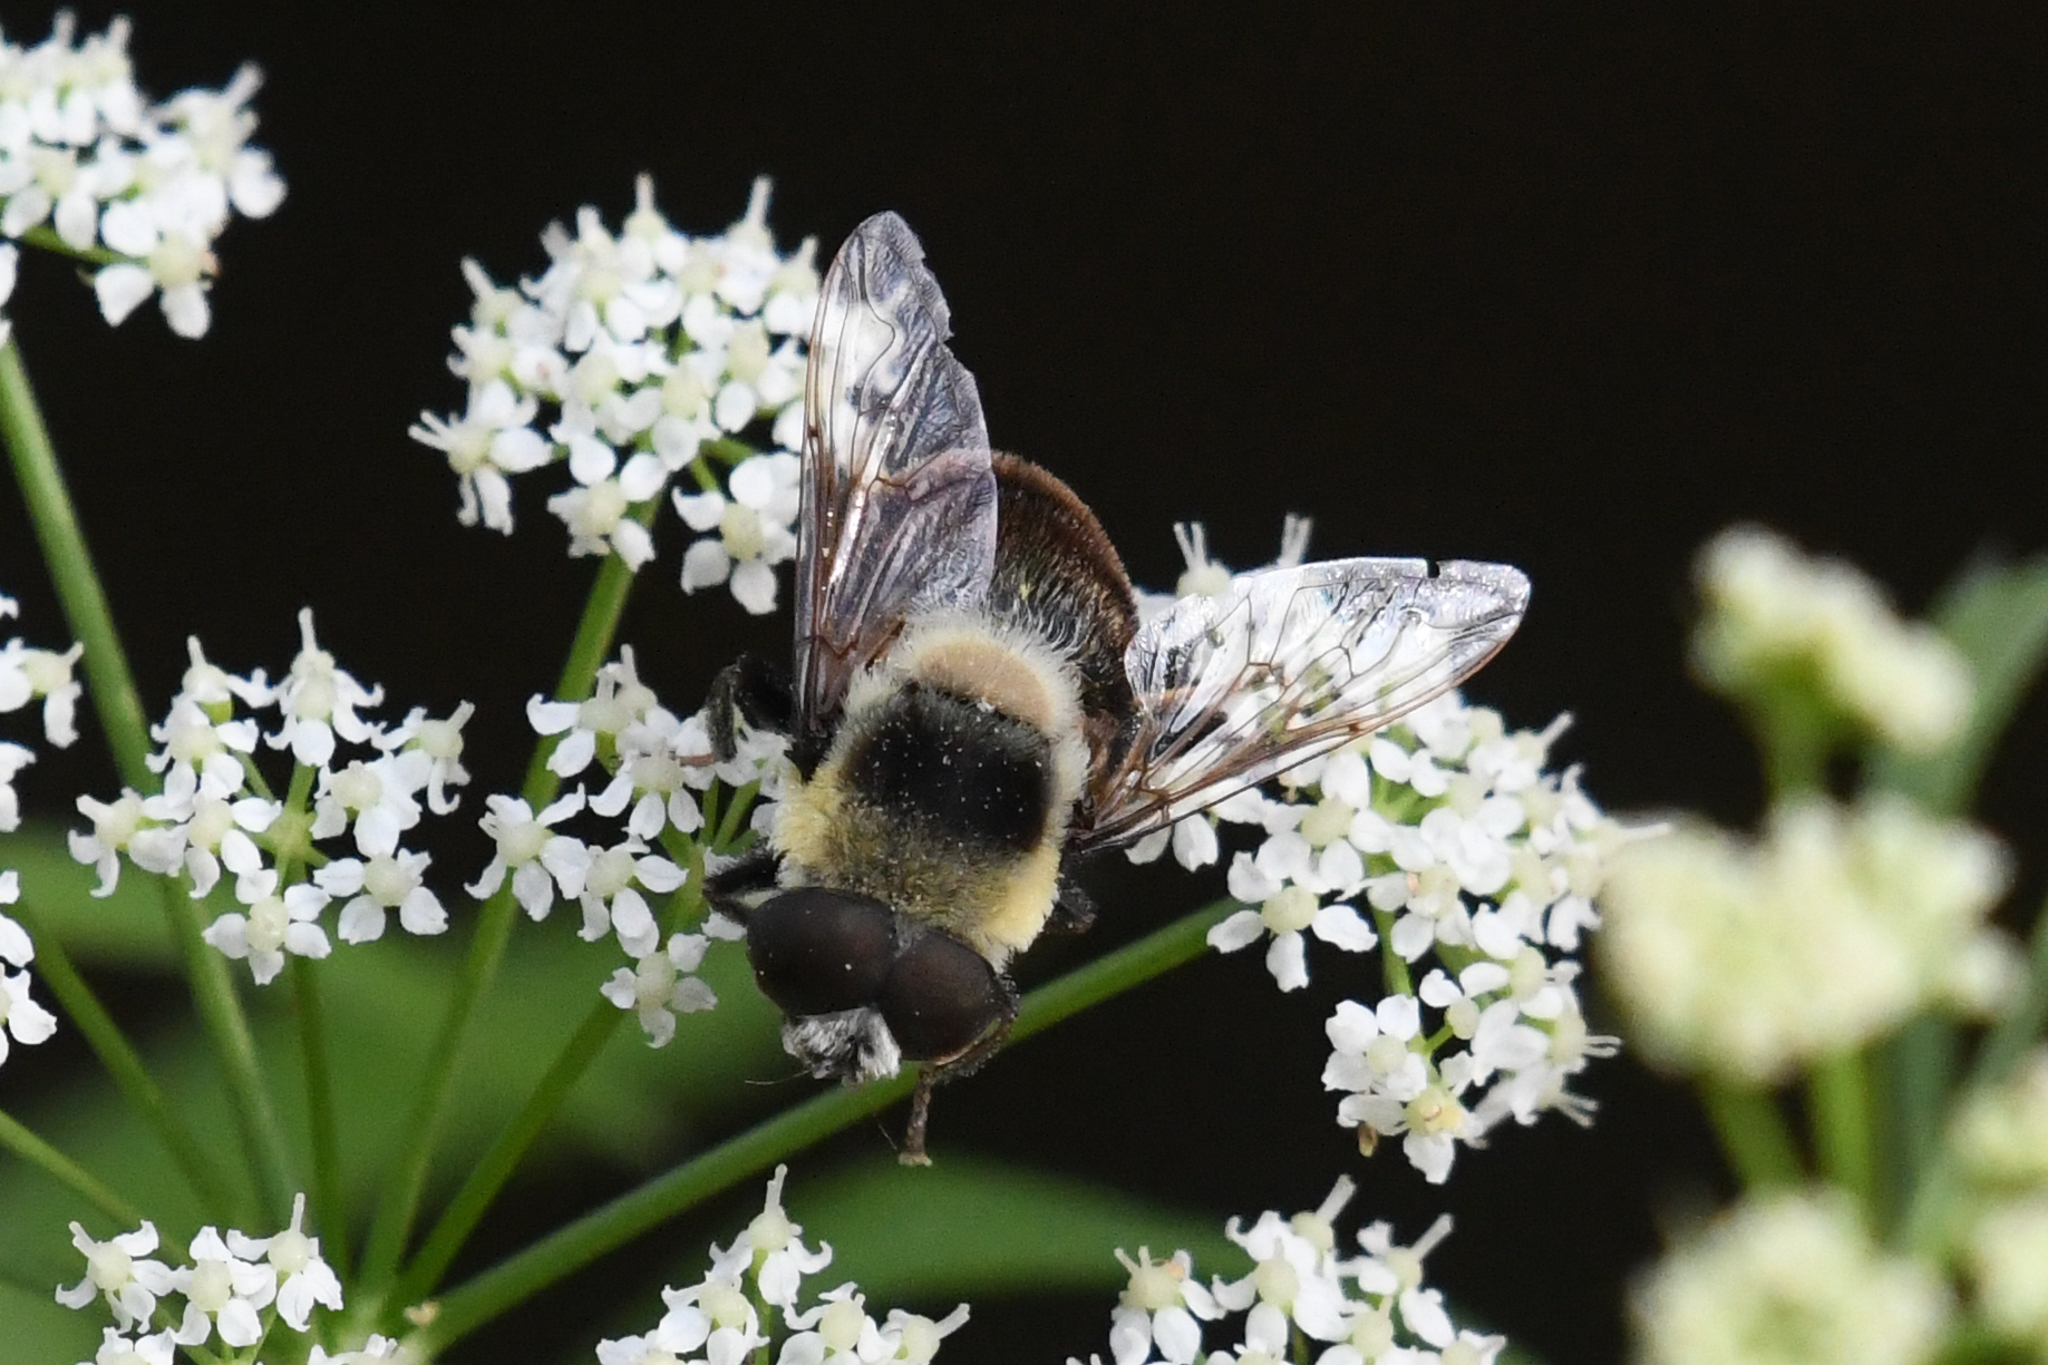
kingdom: Animalia
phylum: Arthropoda
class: Insecta
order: Diptera
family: Syrphidae
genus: Eristalis
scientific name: Eristalis flavipes
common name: Orange-legged drone fly
